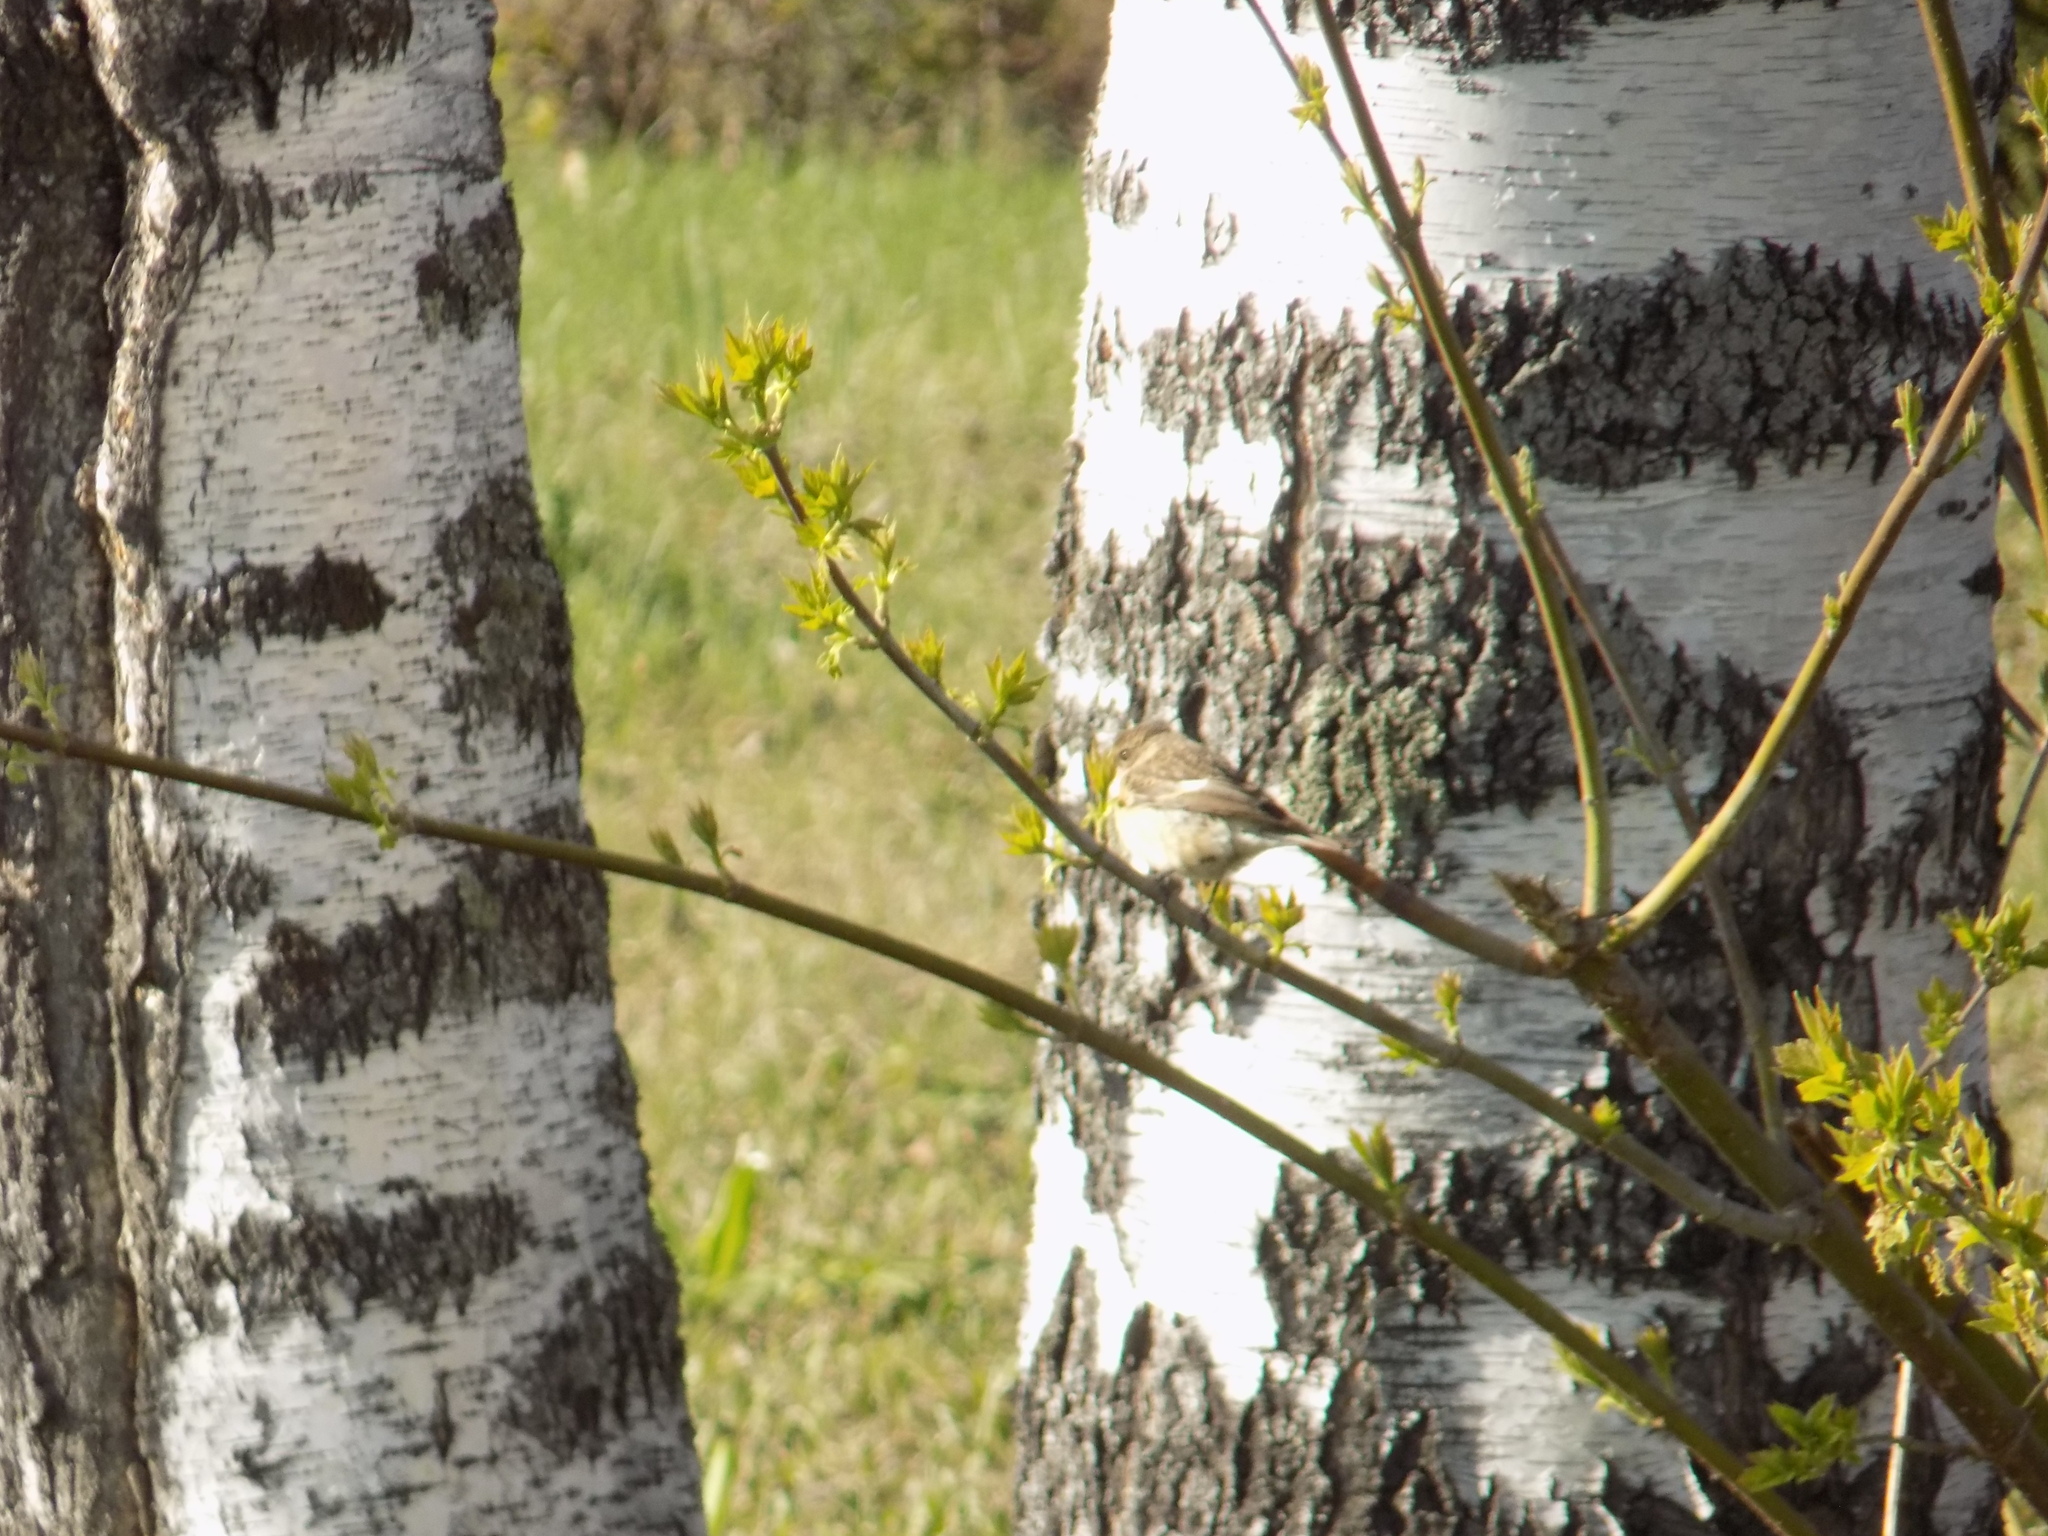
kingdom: Animalia
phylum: Chordata
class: Aves
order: Passeriformes
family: Muscicapidae
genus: Saxicola
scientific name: Saxicola maurus
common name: Siberian stonechat
